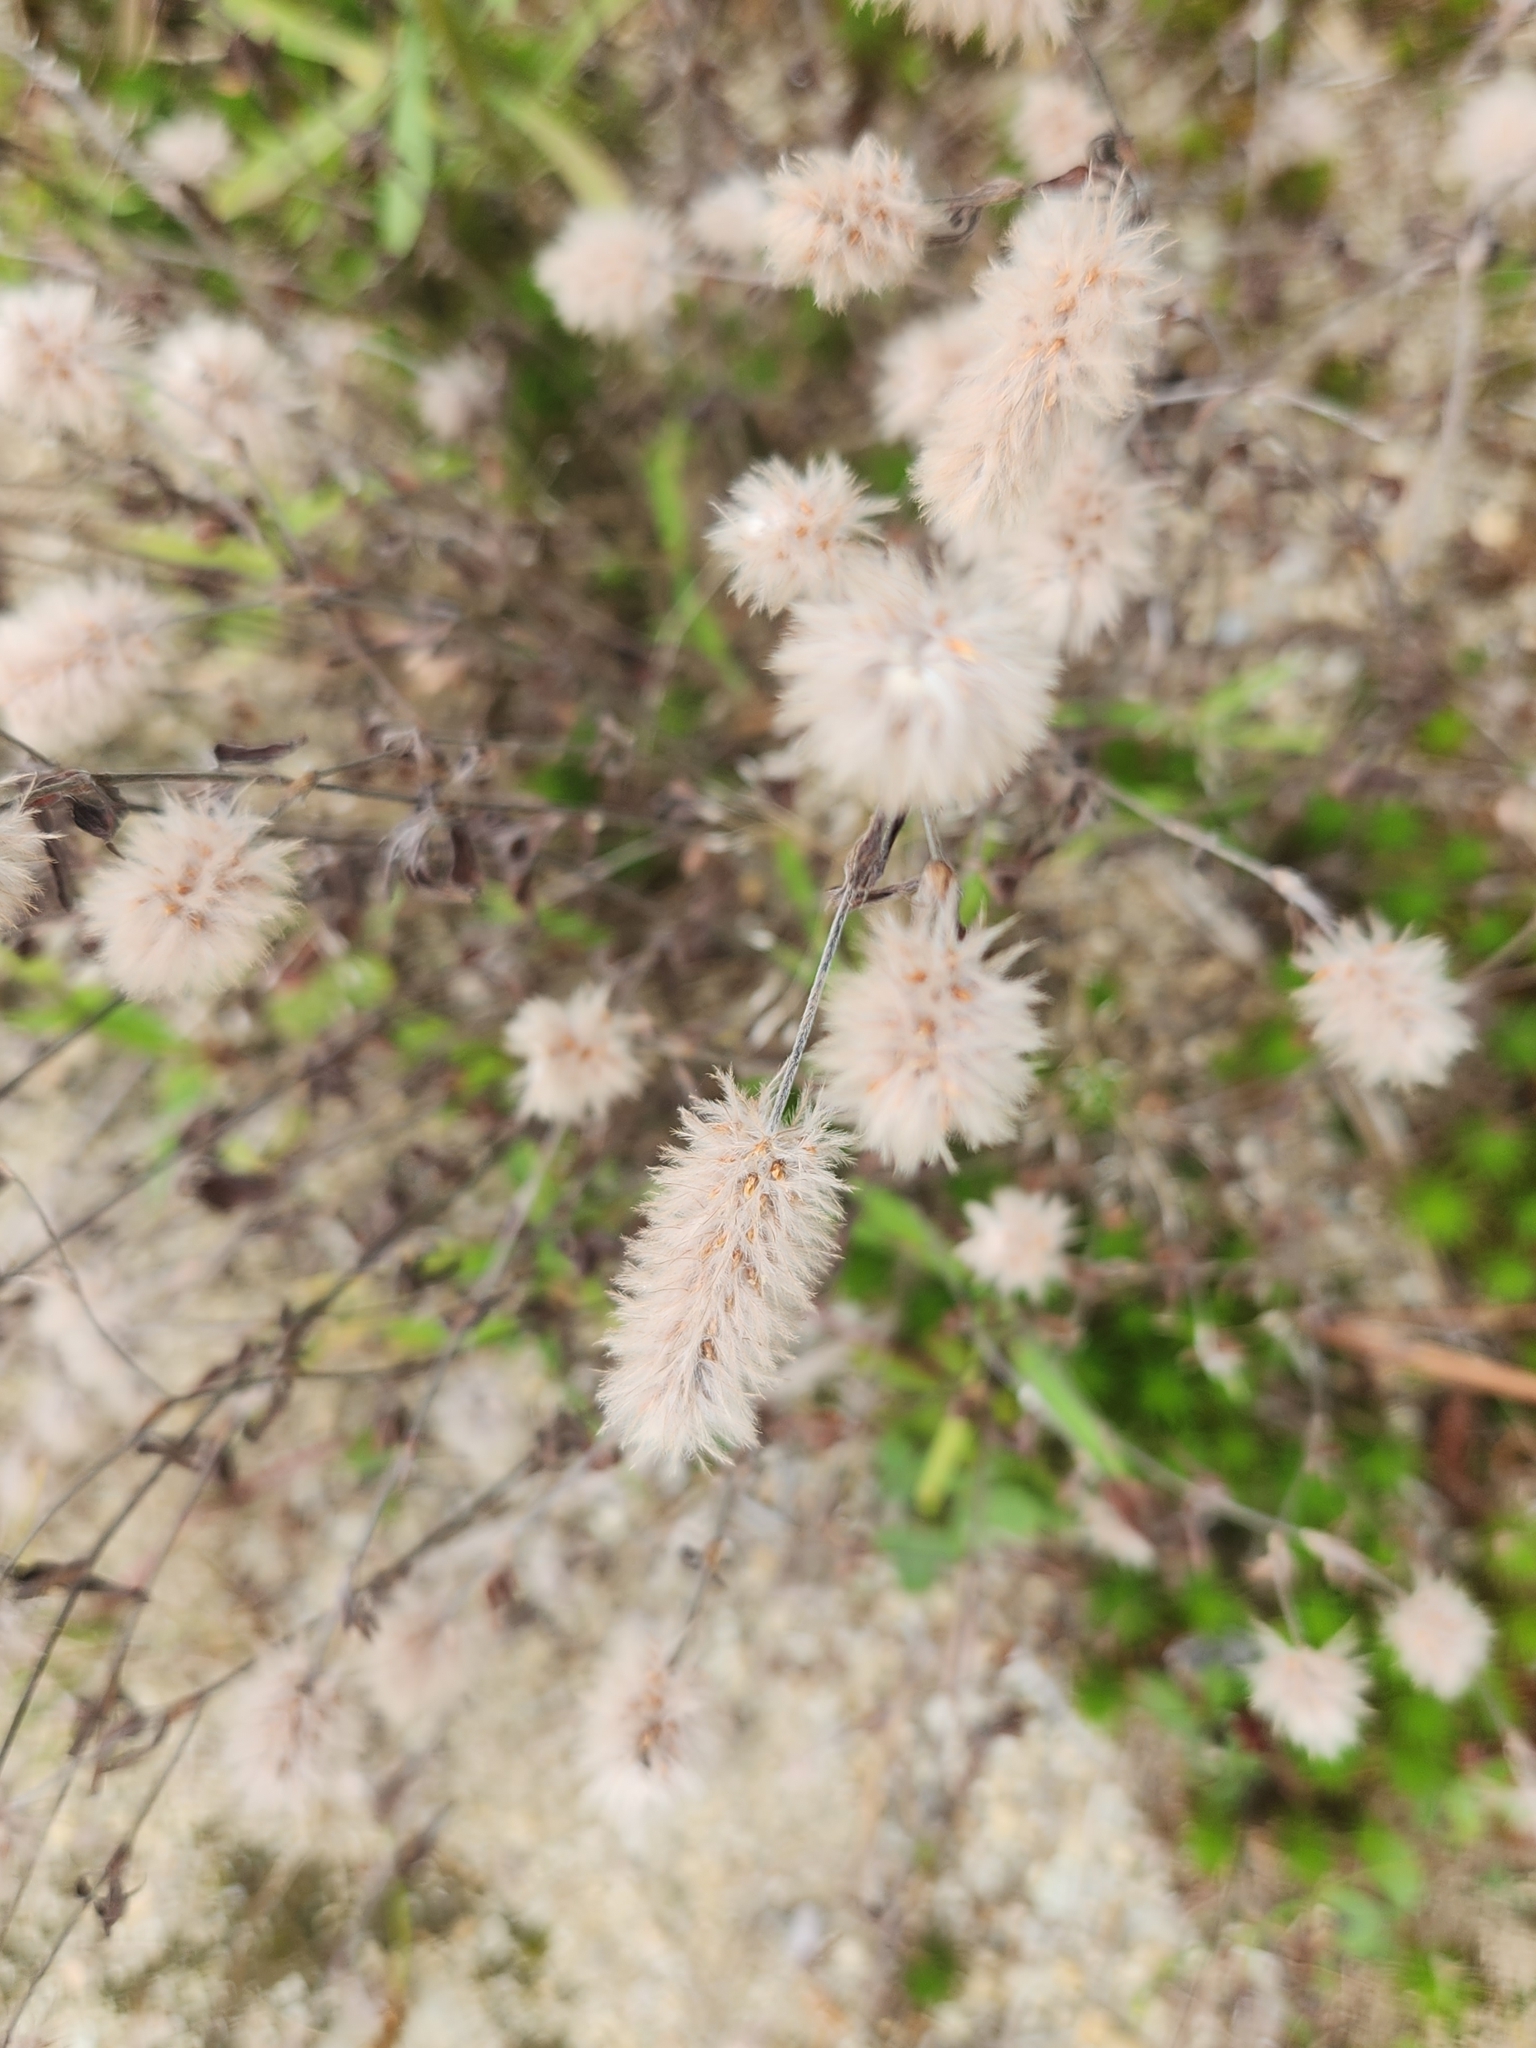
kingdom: Plantae
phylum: Tracheophyta
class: Magnoliopsida
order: Fabales
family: Fabaceae
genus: Trifolium
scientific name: Trifolium arvense
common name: Hare's-foot clover
